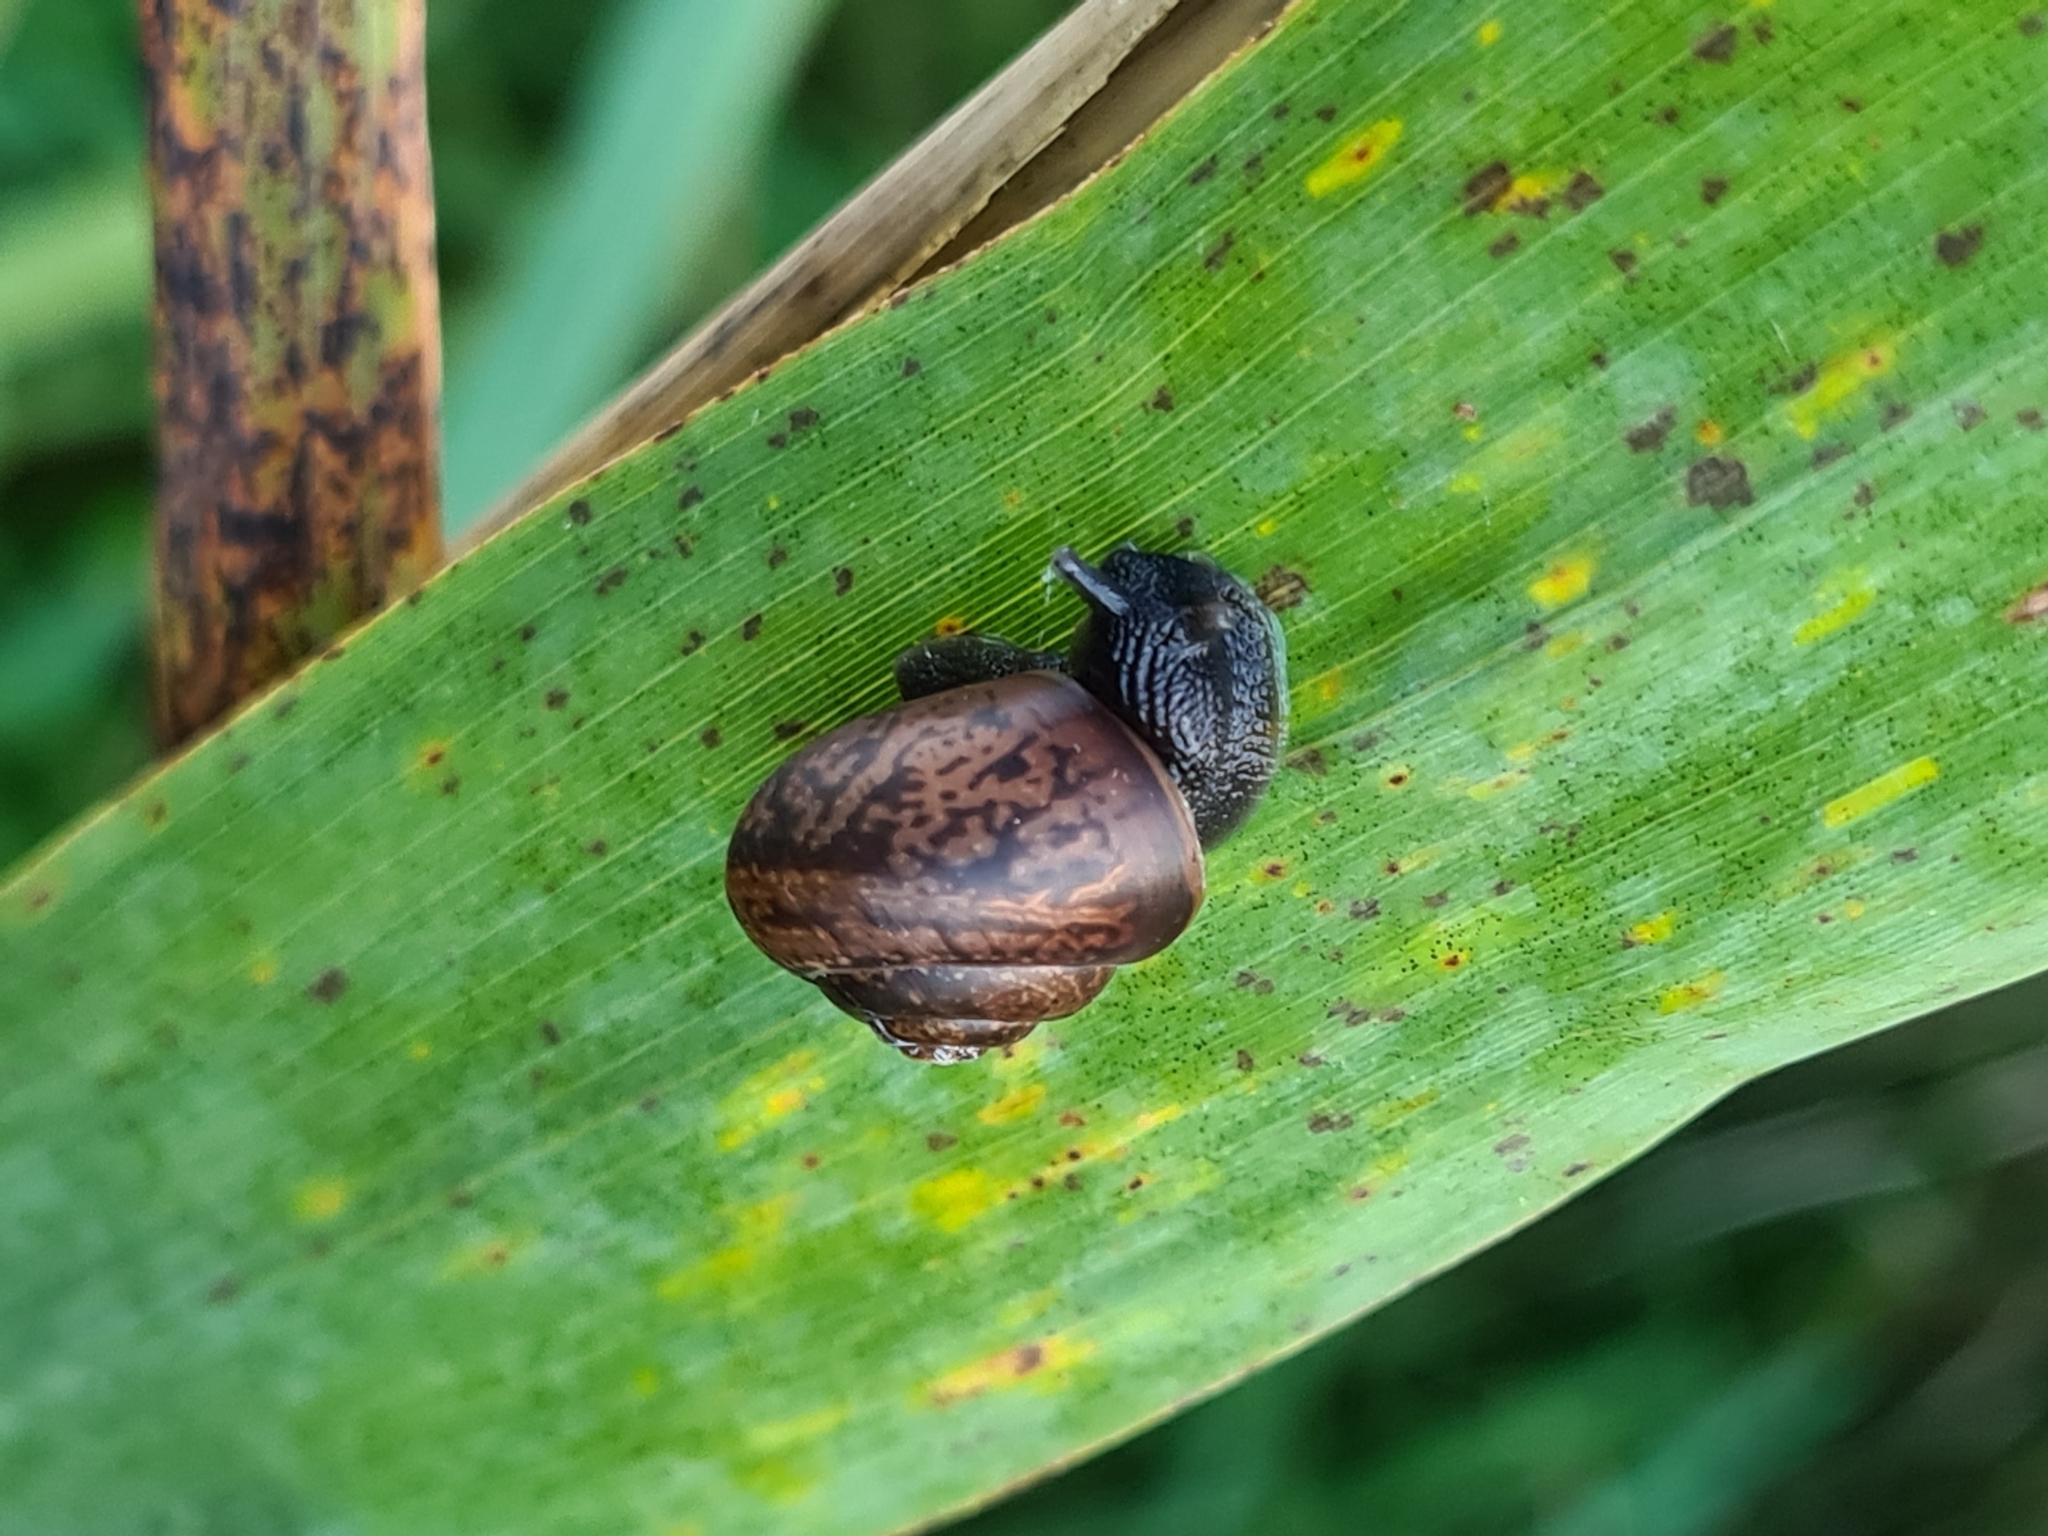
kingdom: Animalia
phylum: Mollusca
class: Gastropoda
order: Stylommatophora
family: Camaenidae
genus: Fruticicola
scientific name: Fruticicola fruticum
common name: Bush snail
